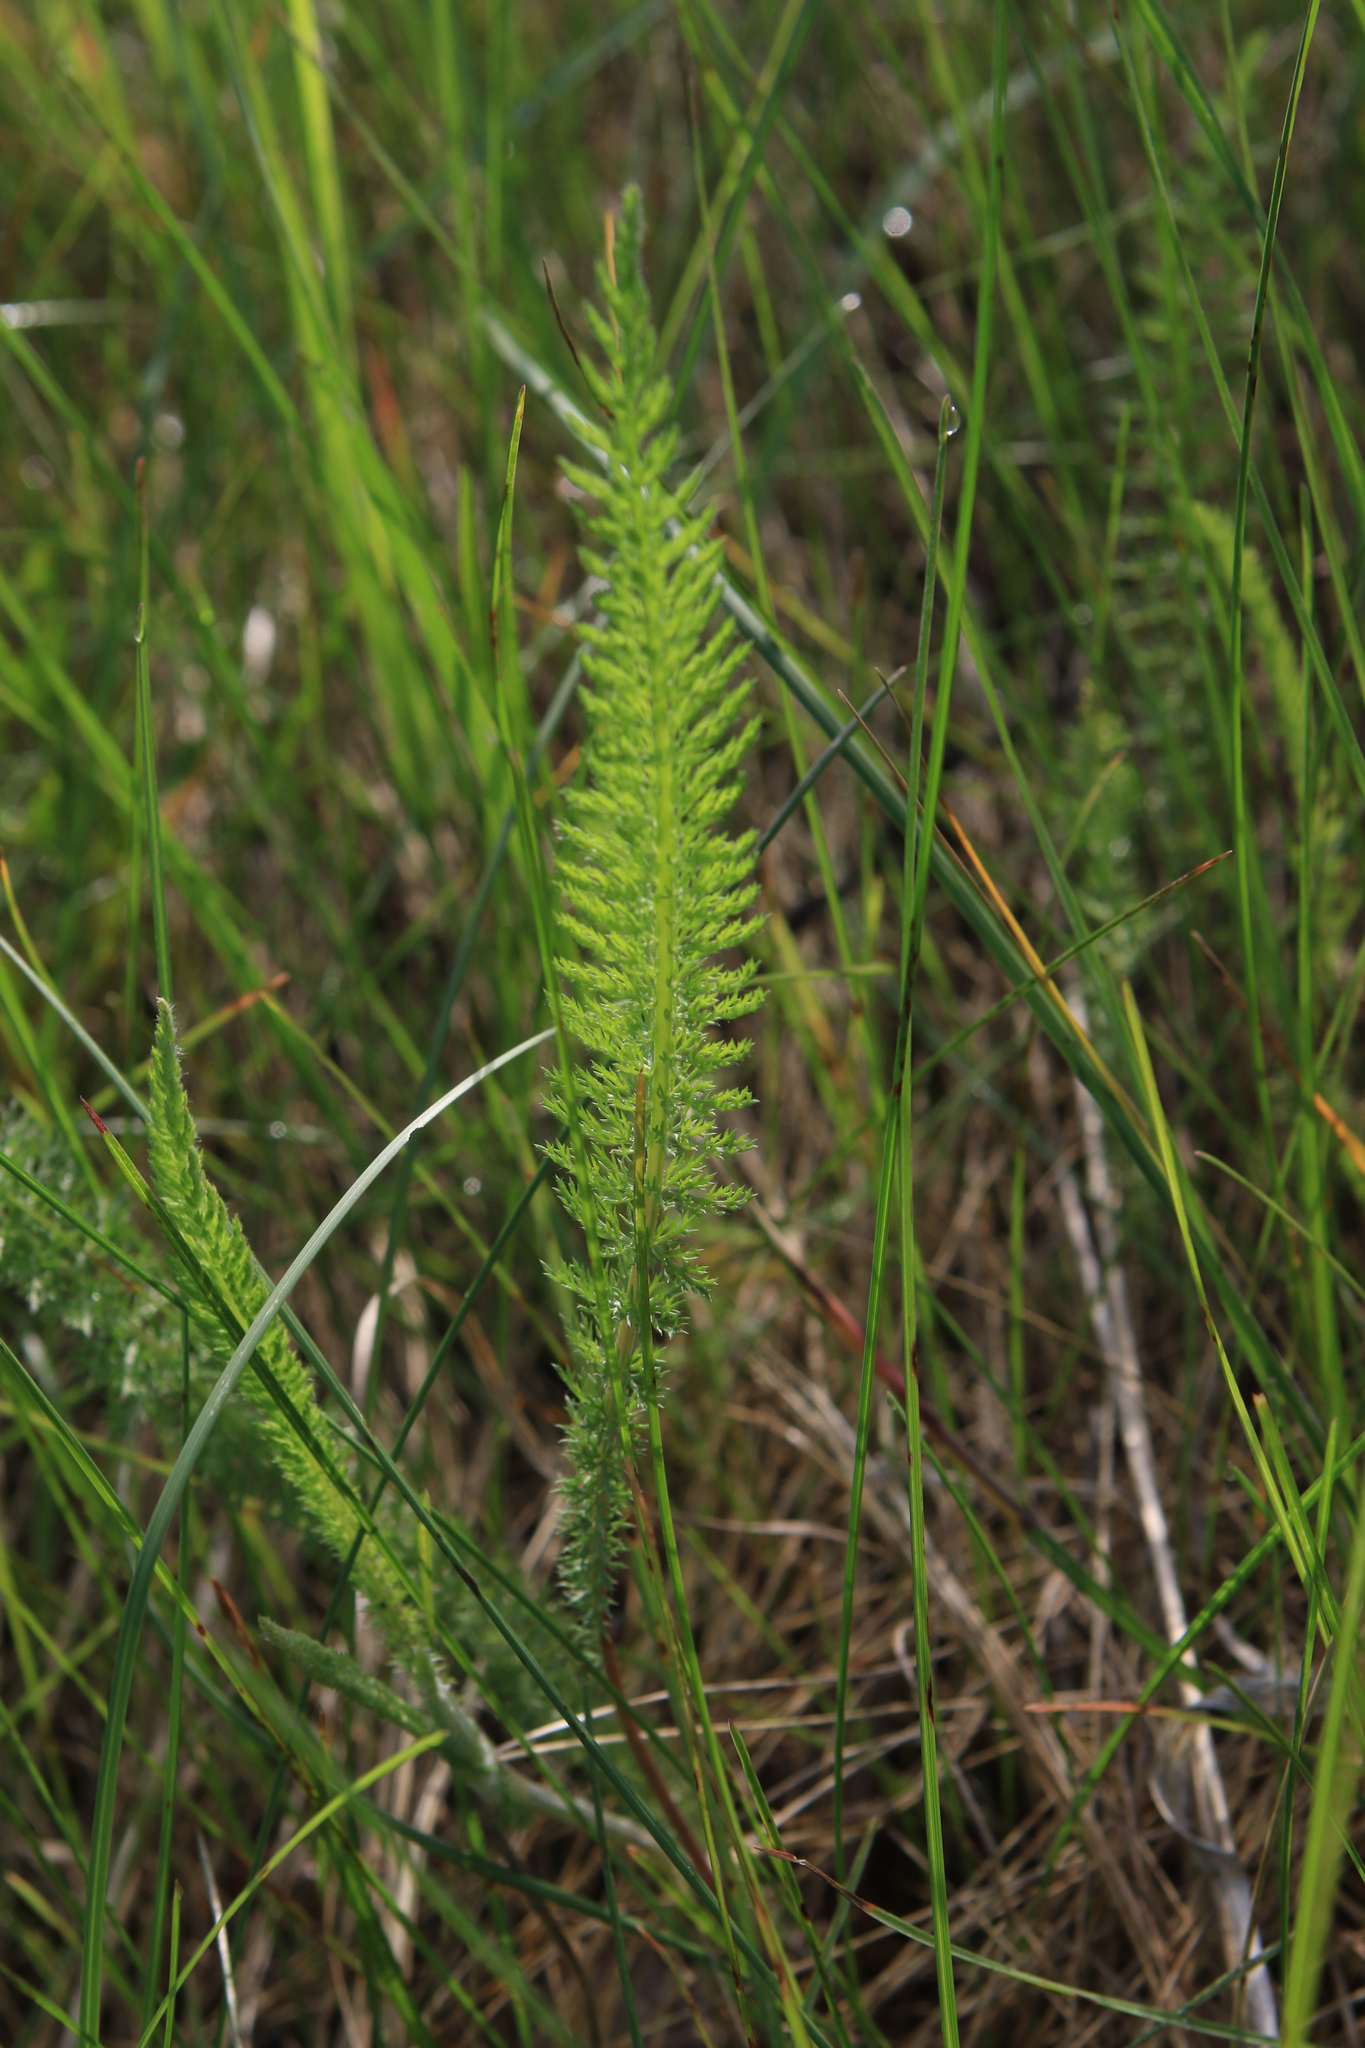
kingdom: Plantae
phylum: Tracheophyta
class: Magnoliopsida
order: Asterales
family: Asteraceae
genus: Achillea
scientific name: Achillea millefolium
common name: Yarrow
